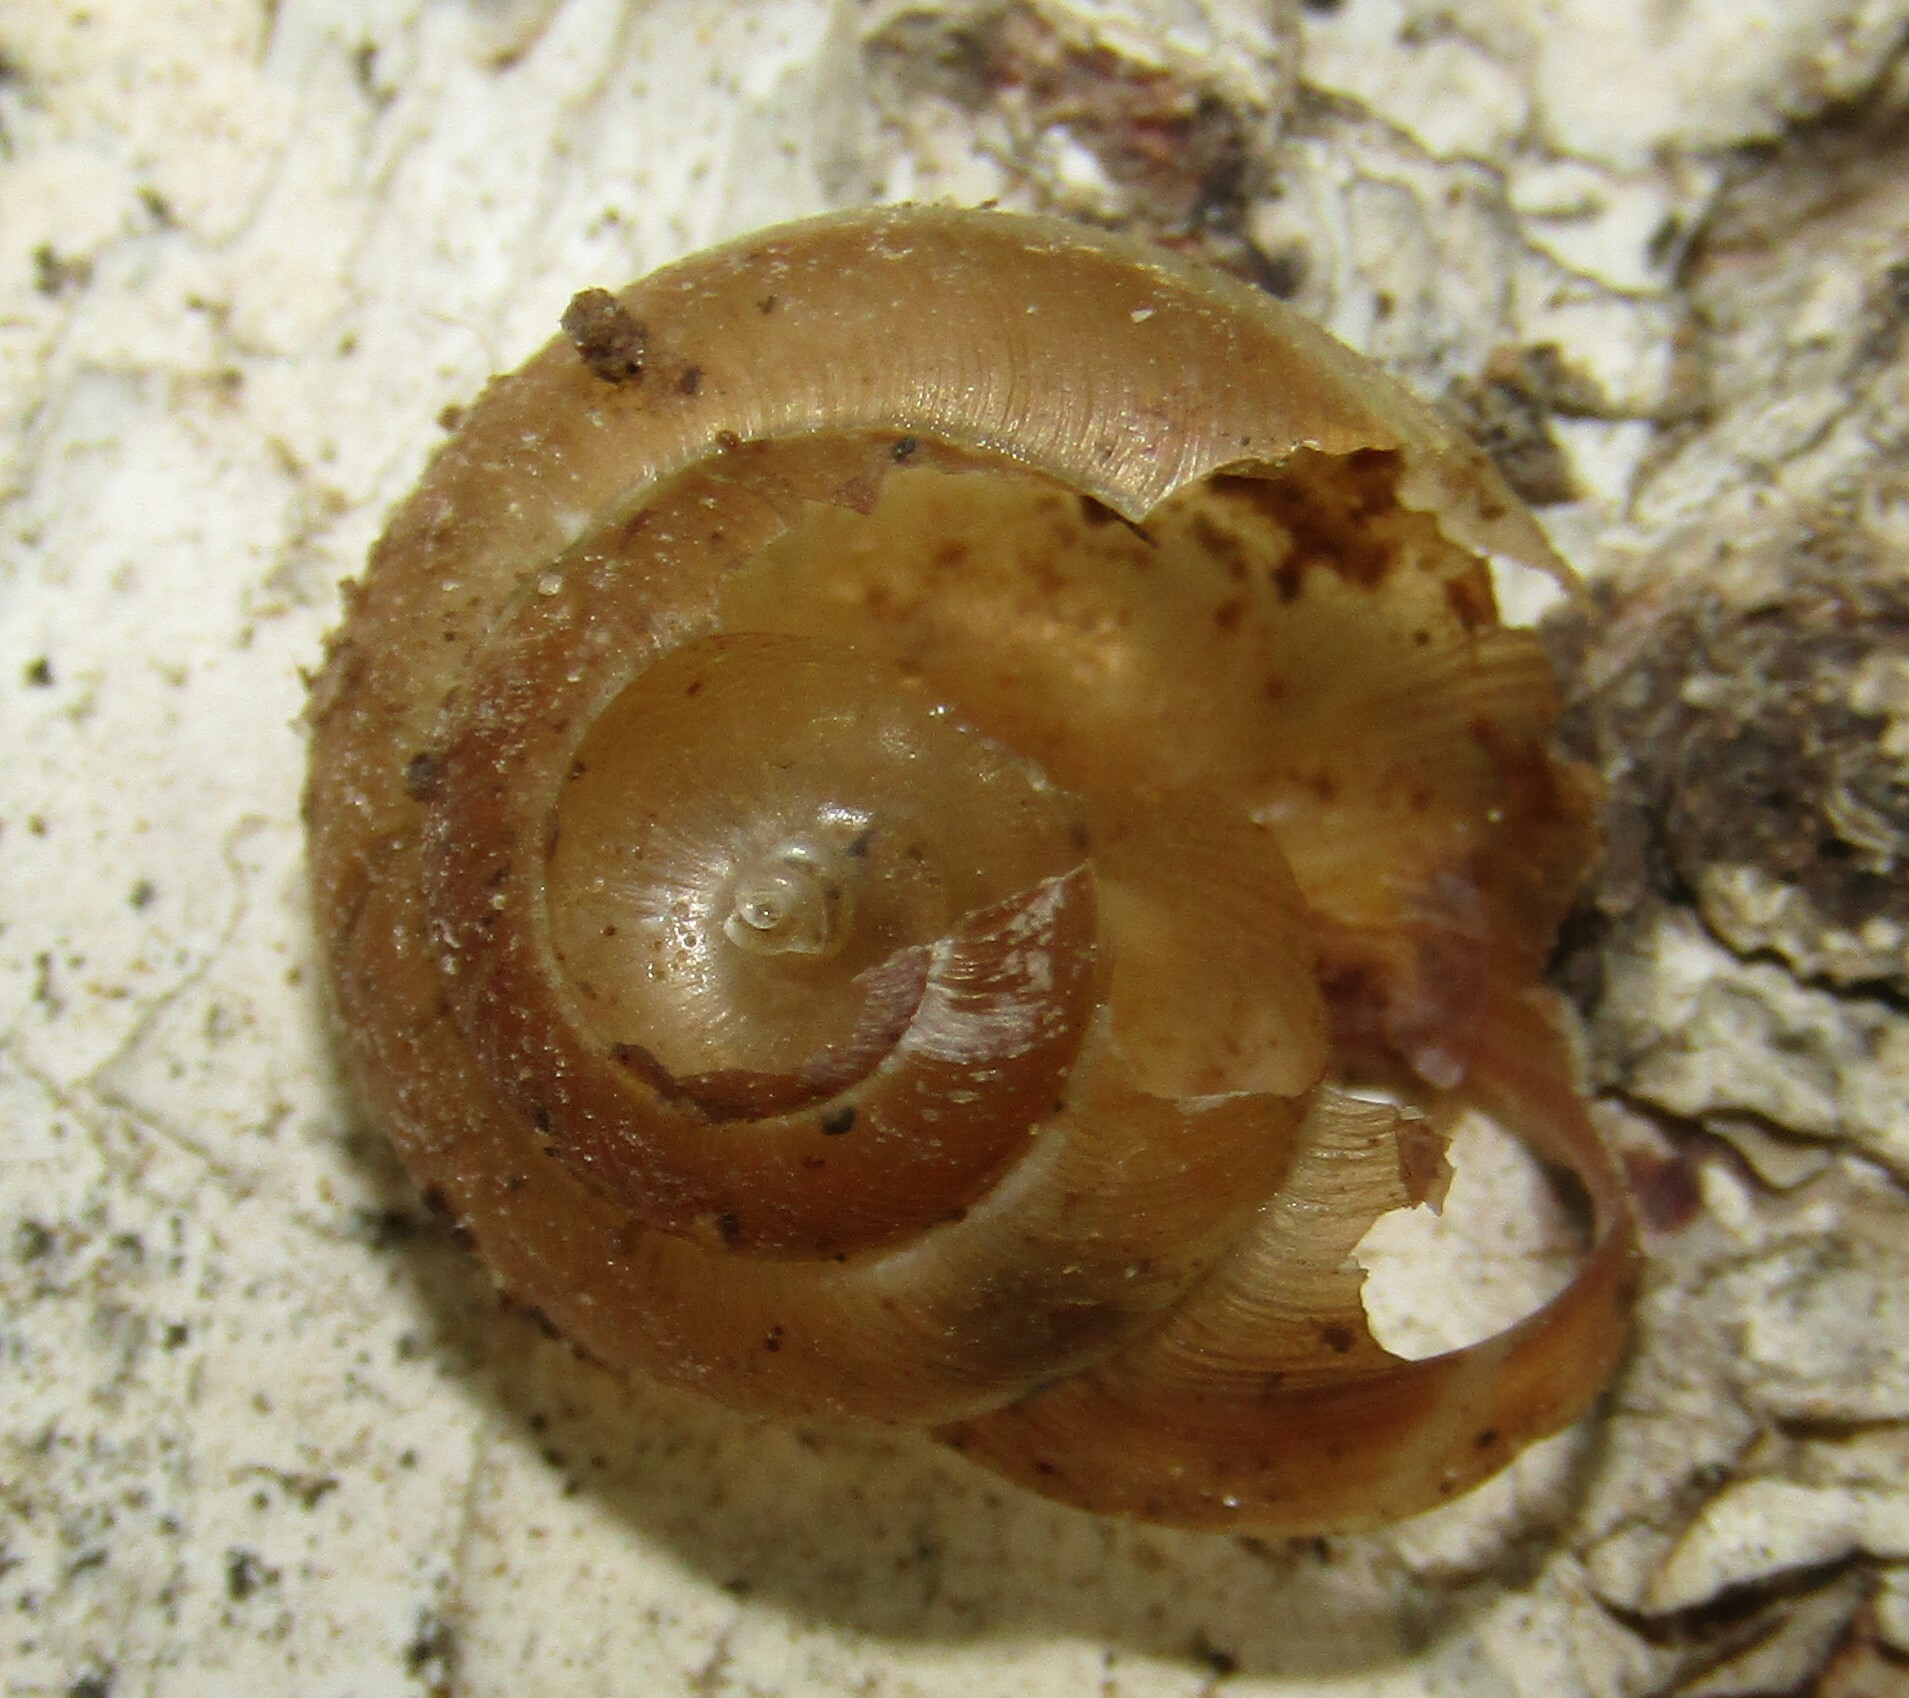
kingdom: Animalia
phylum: Mollusca
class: Gastropoda
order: Stylommatophora
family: Hygromiidae
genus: Euomphalia
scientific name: Euomphalia strigella
